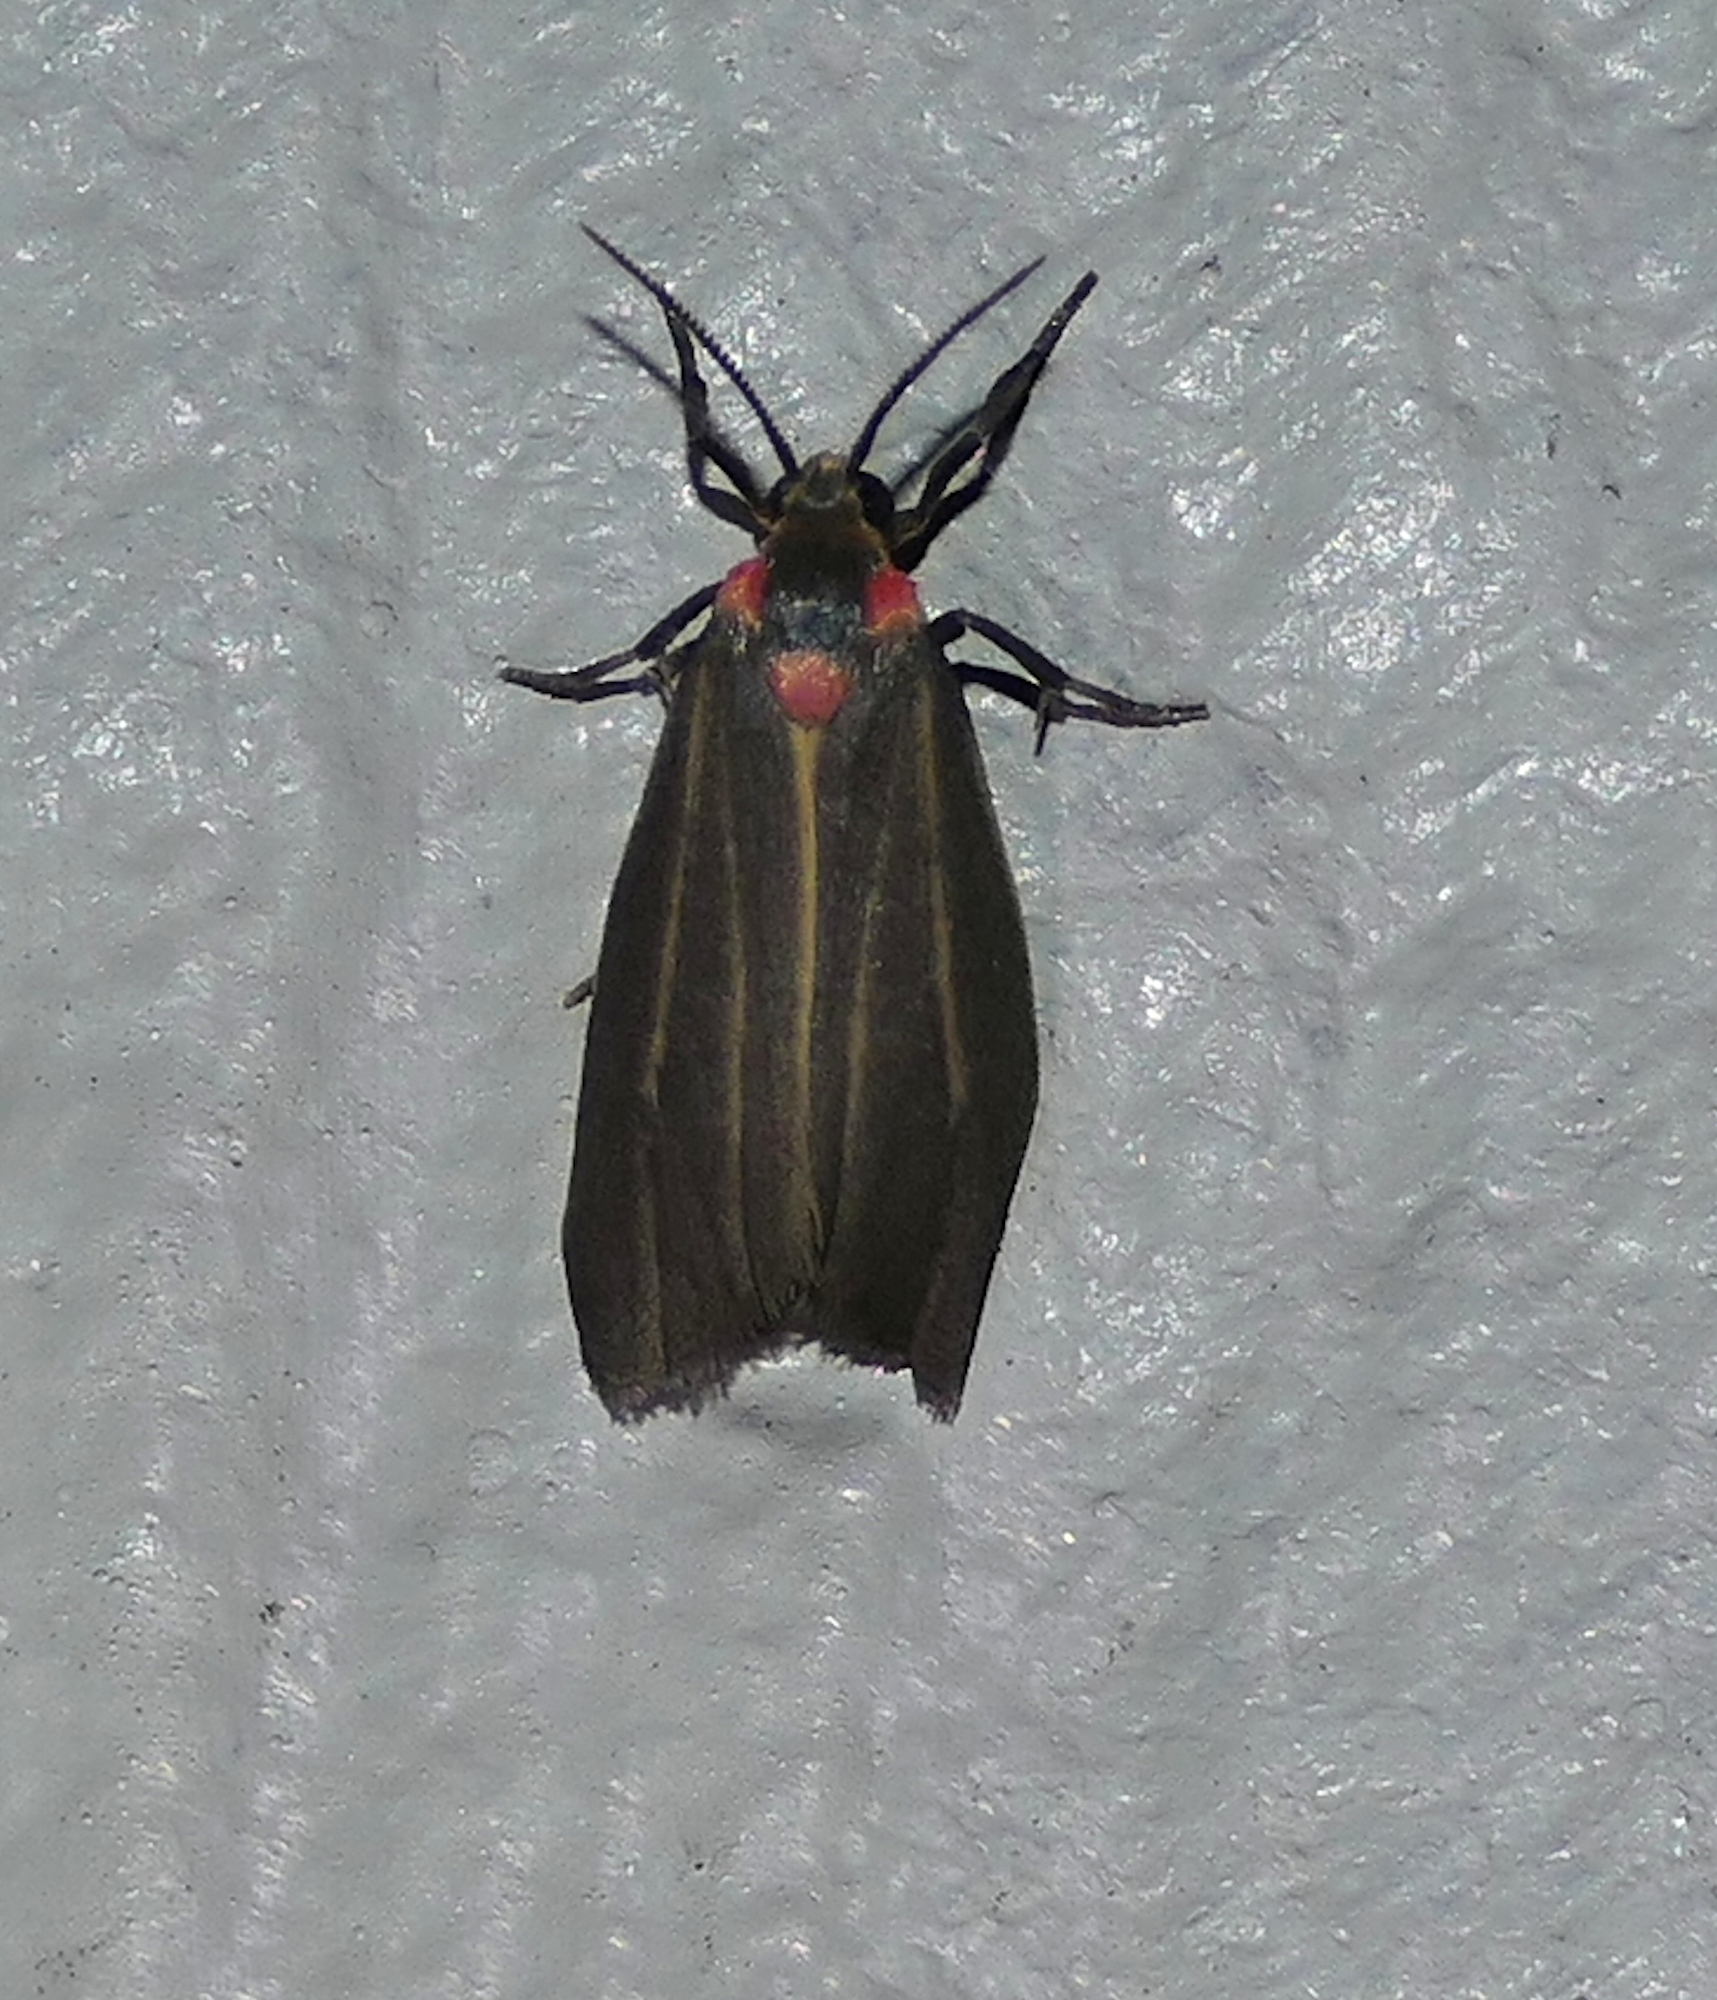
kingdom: Animalia
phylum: Arthropoda
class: Insecta
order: Lepidoptera
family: Erebidae
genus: Haematomis
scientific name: Haematomis uniformis
